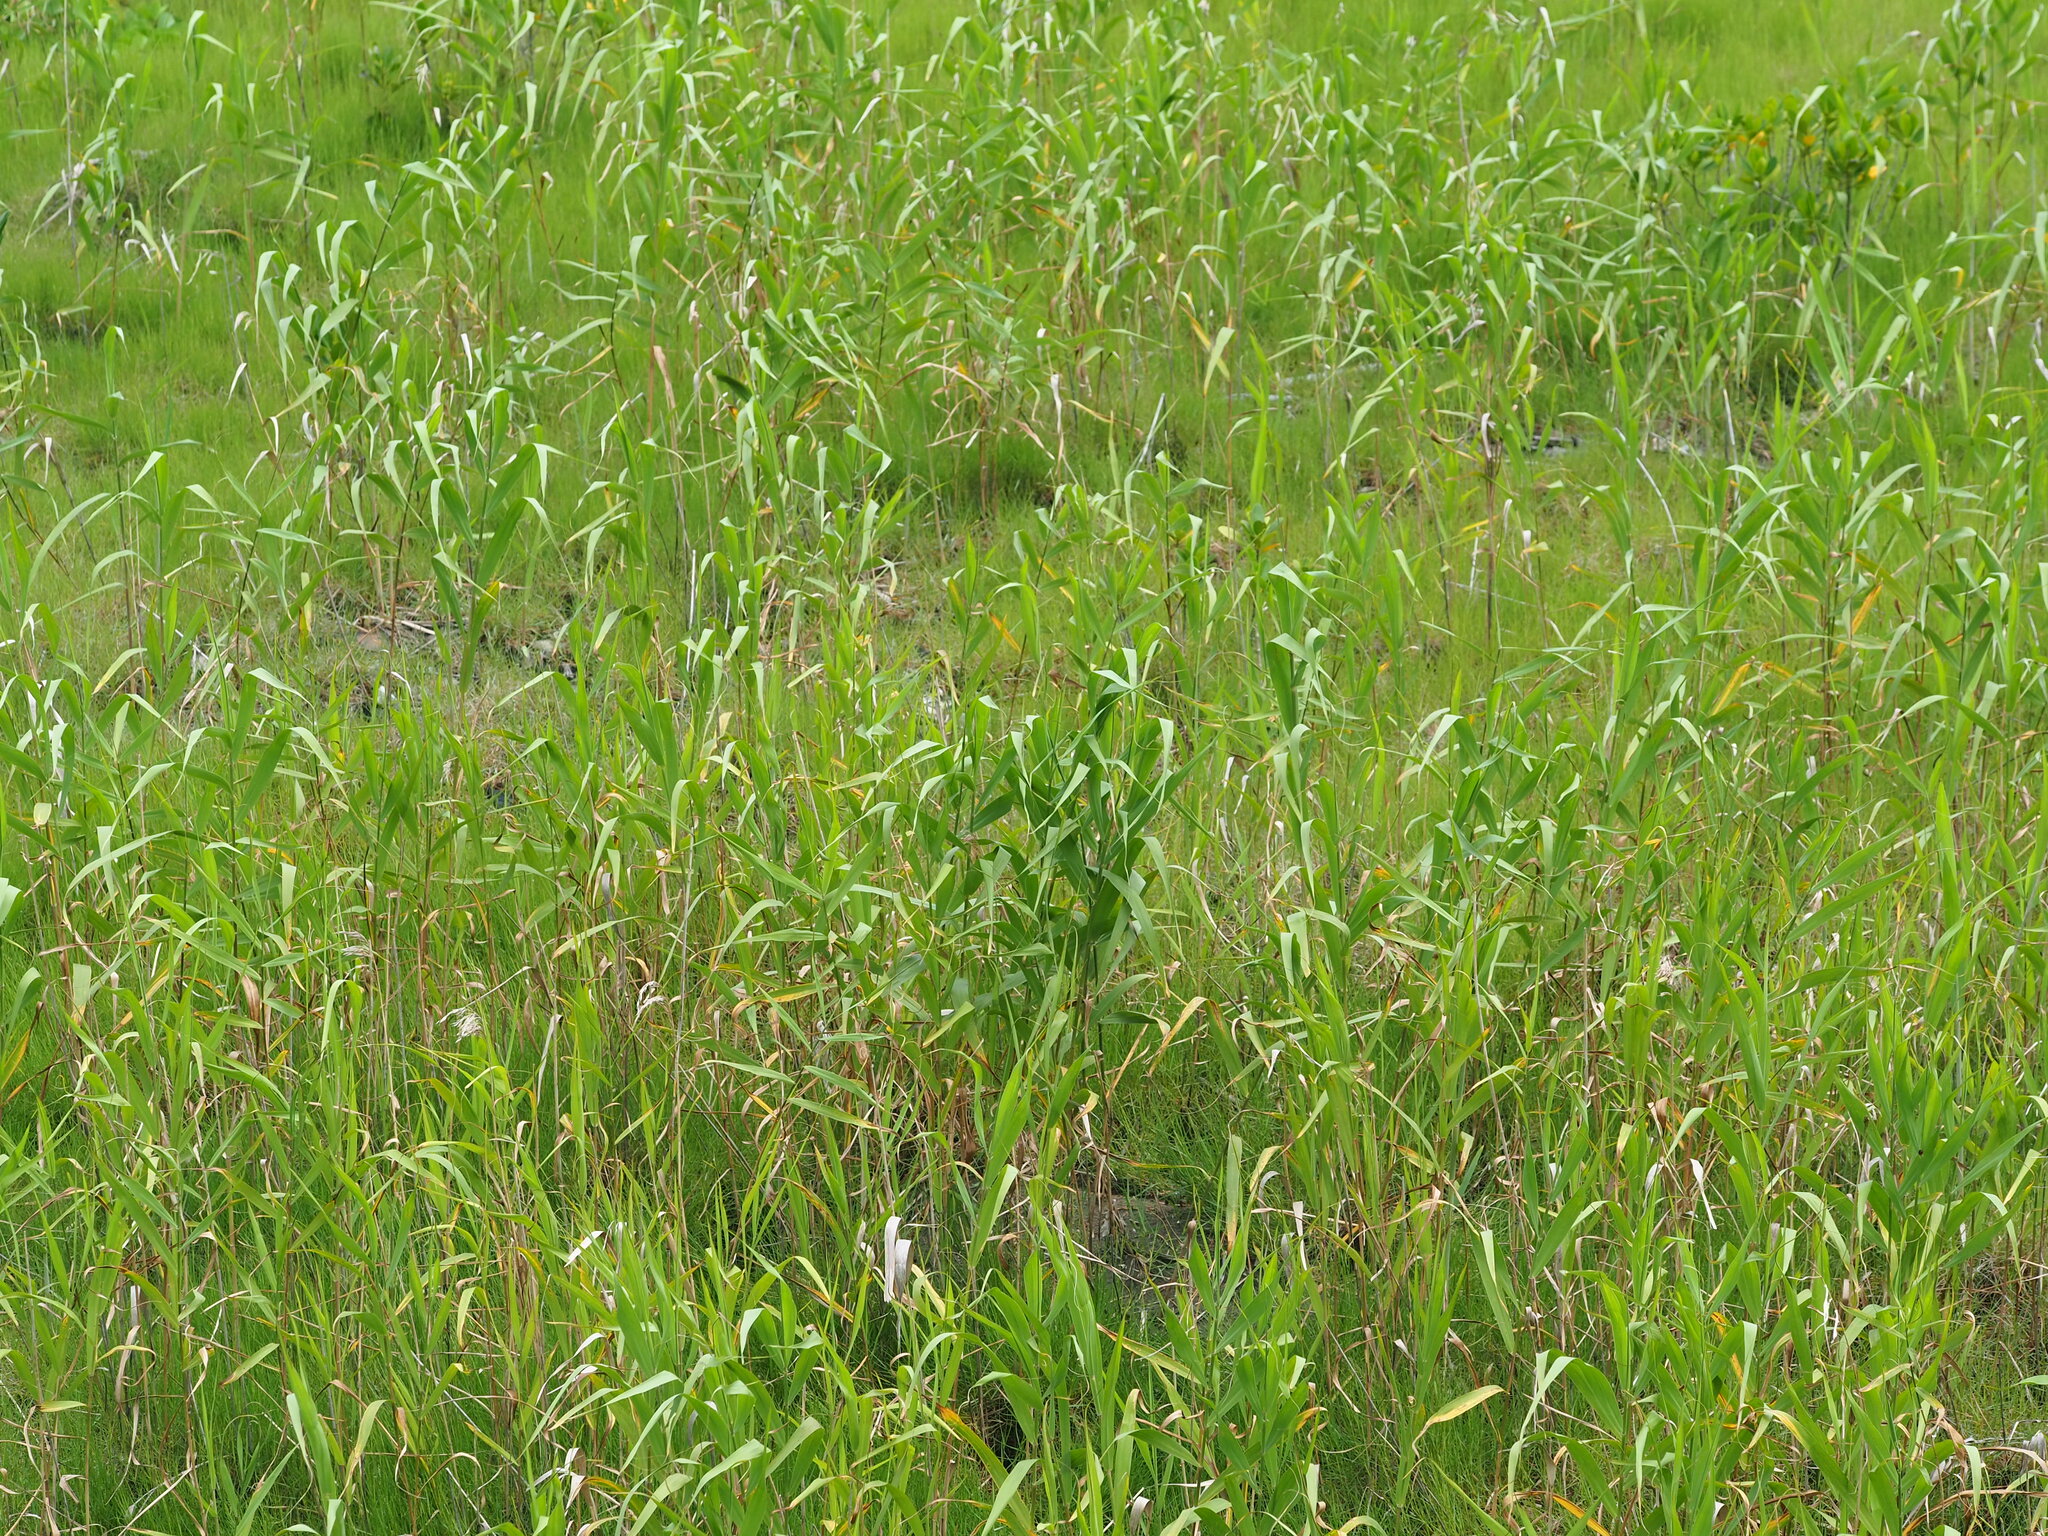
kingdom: Plantae
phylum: Tracheophyta
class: Liliopsida
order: Poales
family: Poaceae
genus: Phragmites
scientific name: Phragmites australis
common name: Common reed
